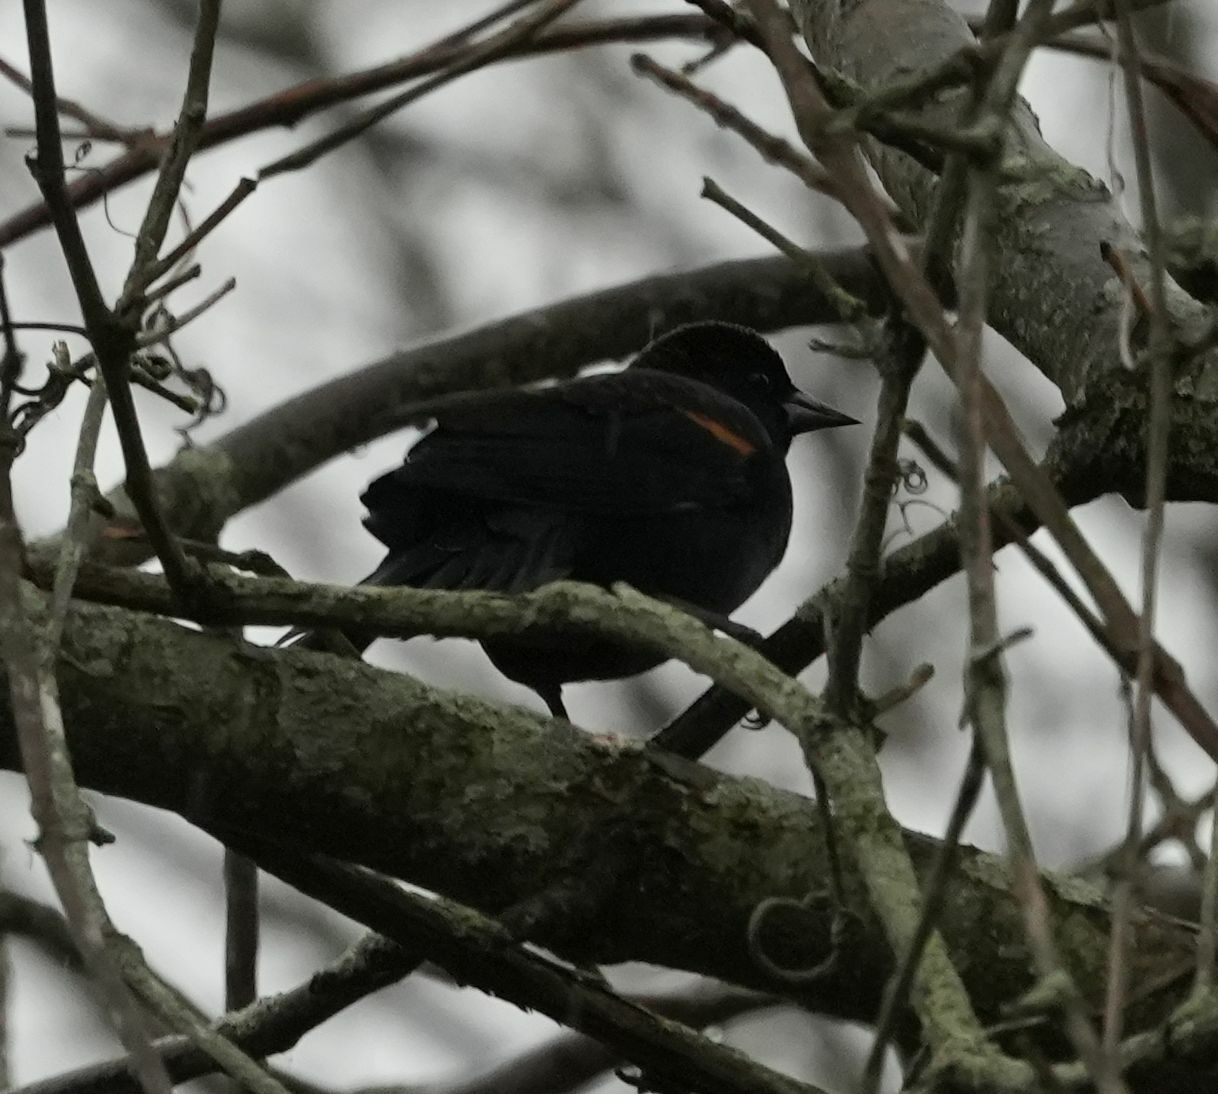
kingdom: Animalia
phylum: Chordata
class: Aves
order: Passeriformes
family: Icteridae
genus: Agelaius
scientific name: Agelaius phoeniceus
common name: Red-winged blackbird
